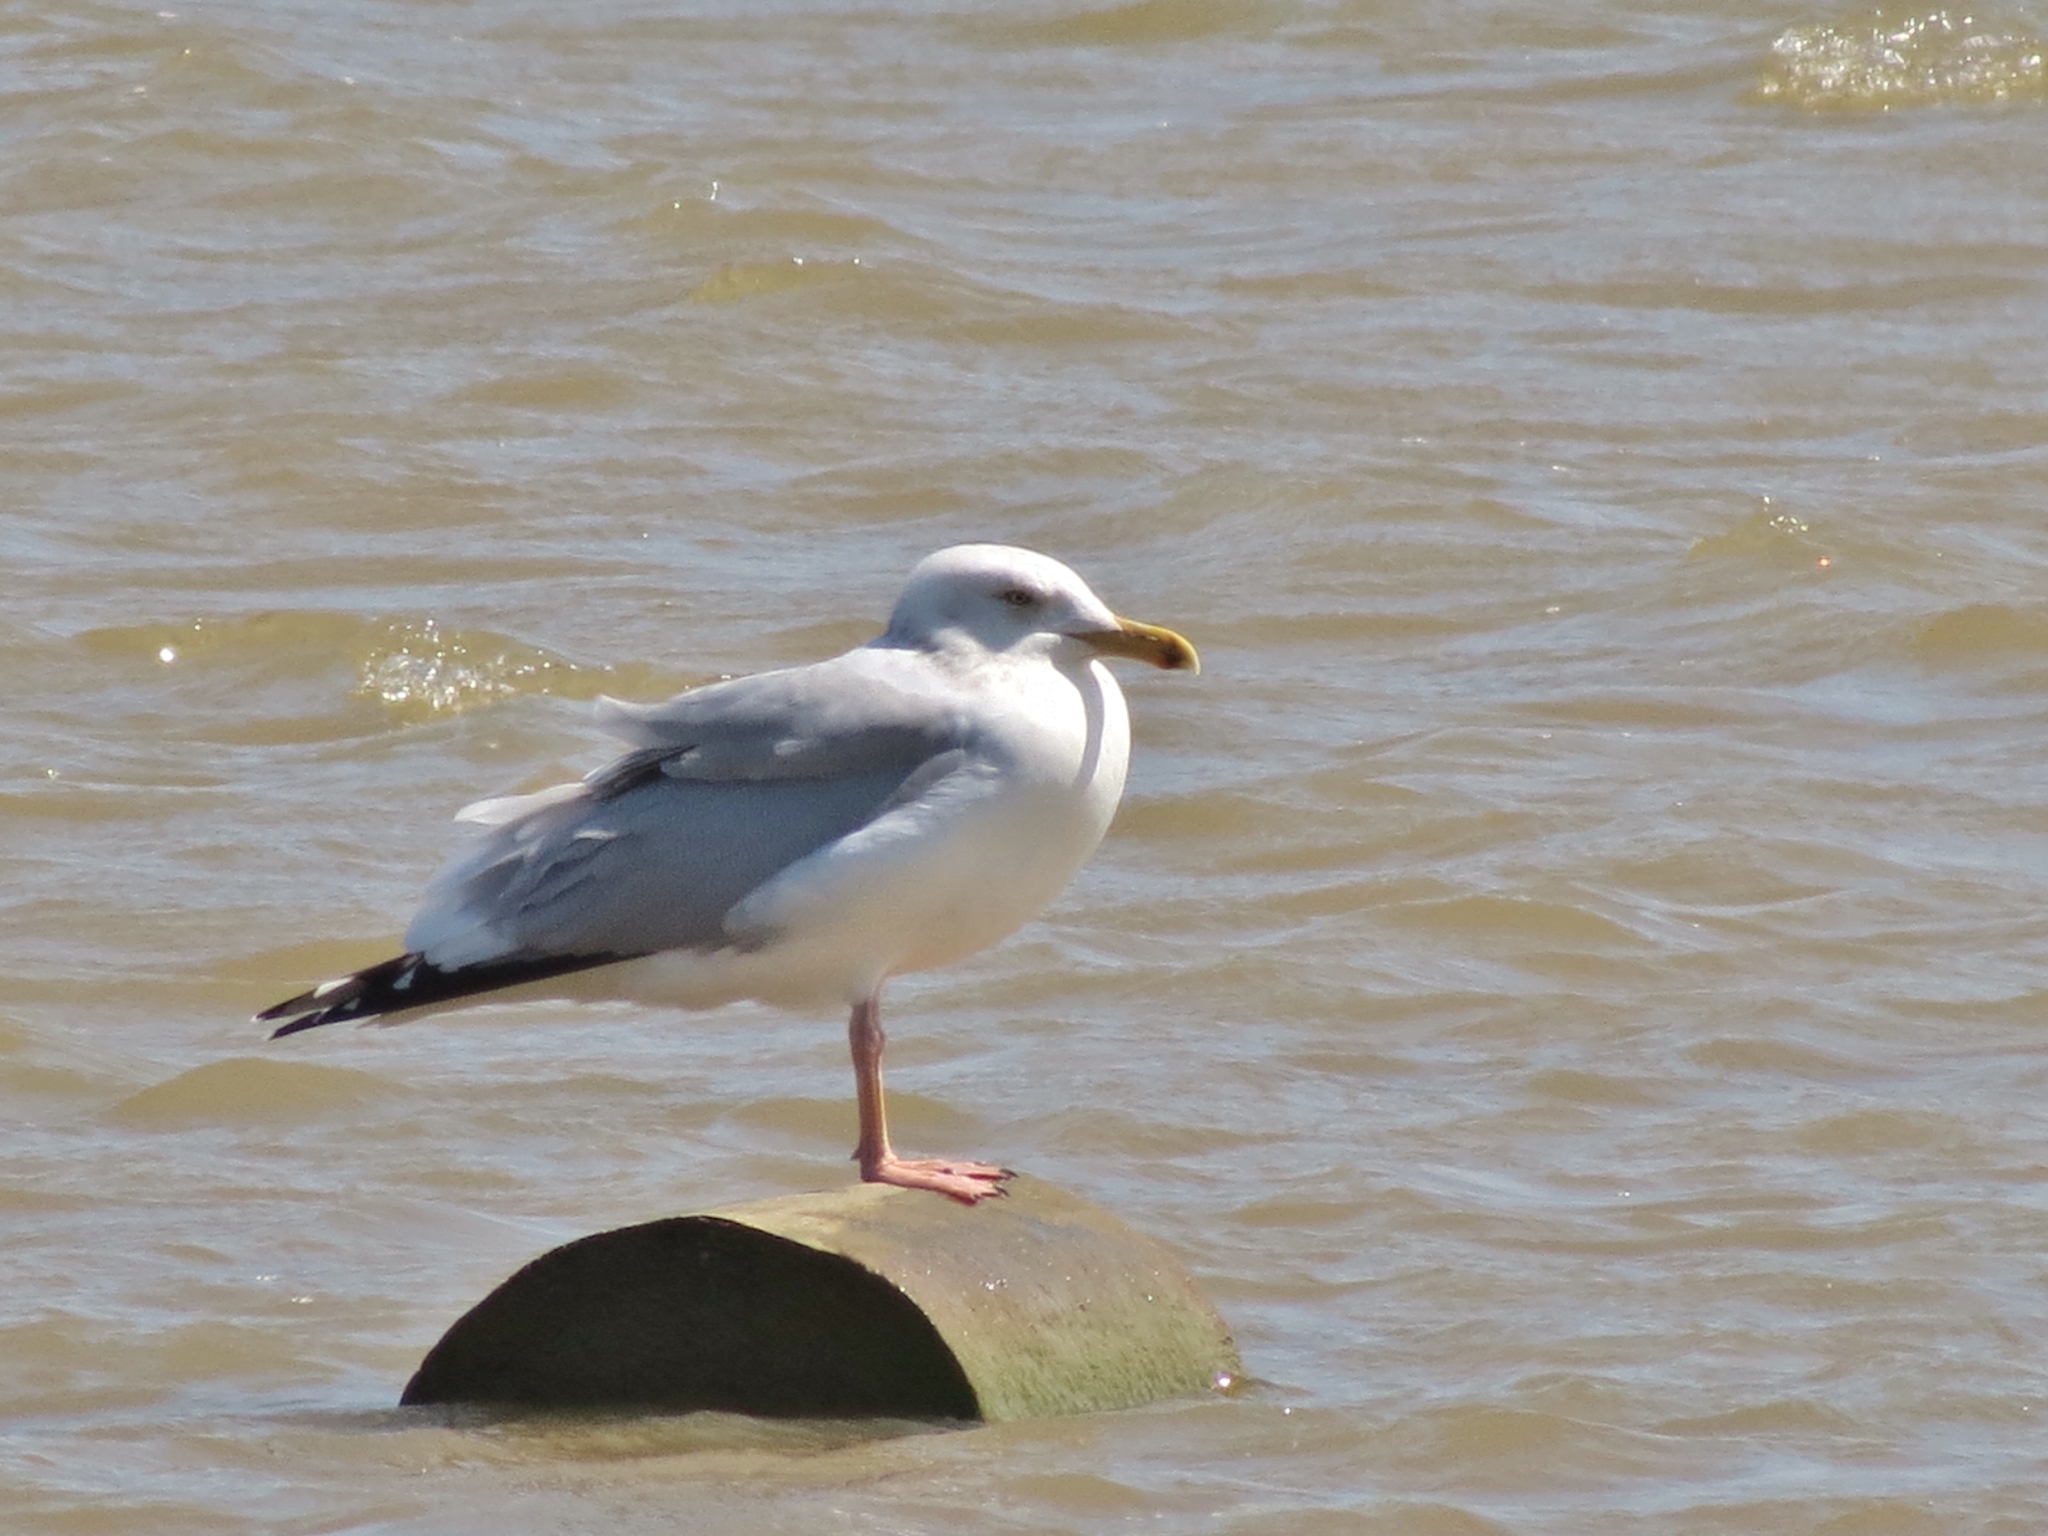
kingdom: Animalia
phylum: Chordata
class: Aves
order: Charadriiformes
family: Laridae
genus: Larus
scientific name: Larus argentatus
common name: Herring gull
